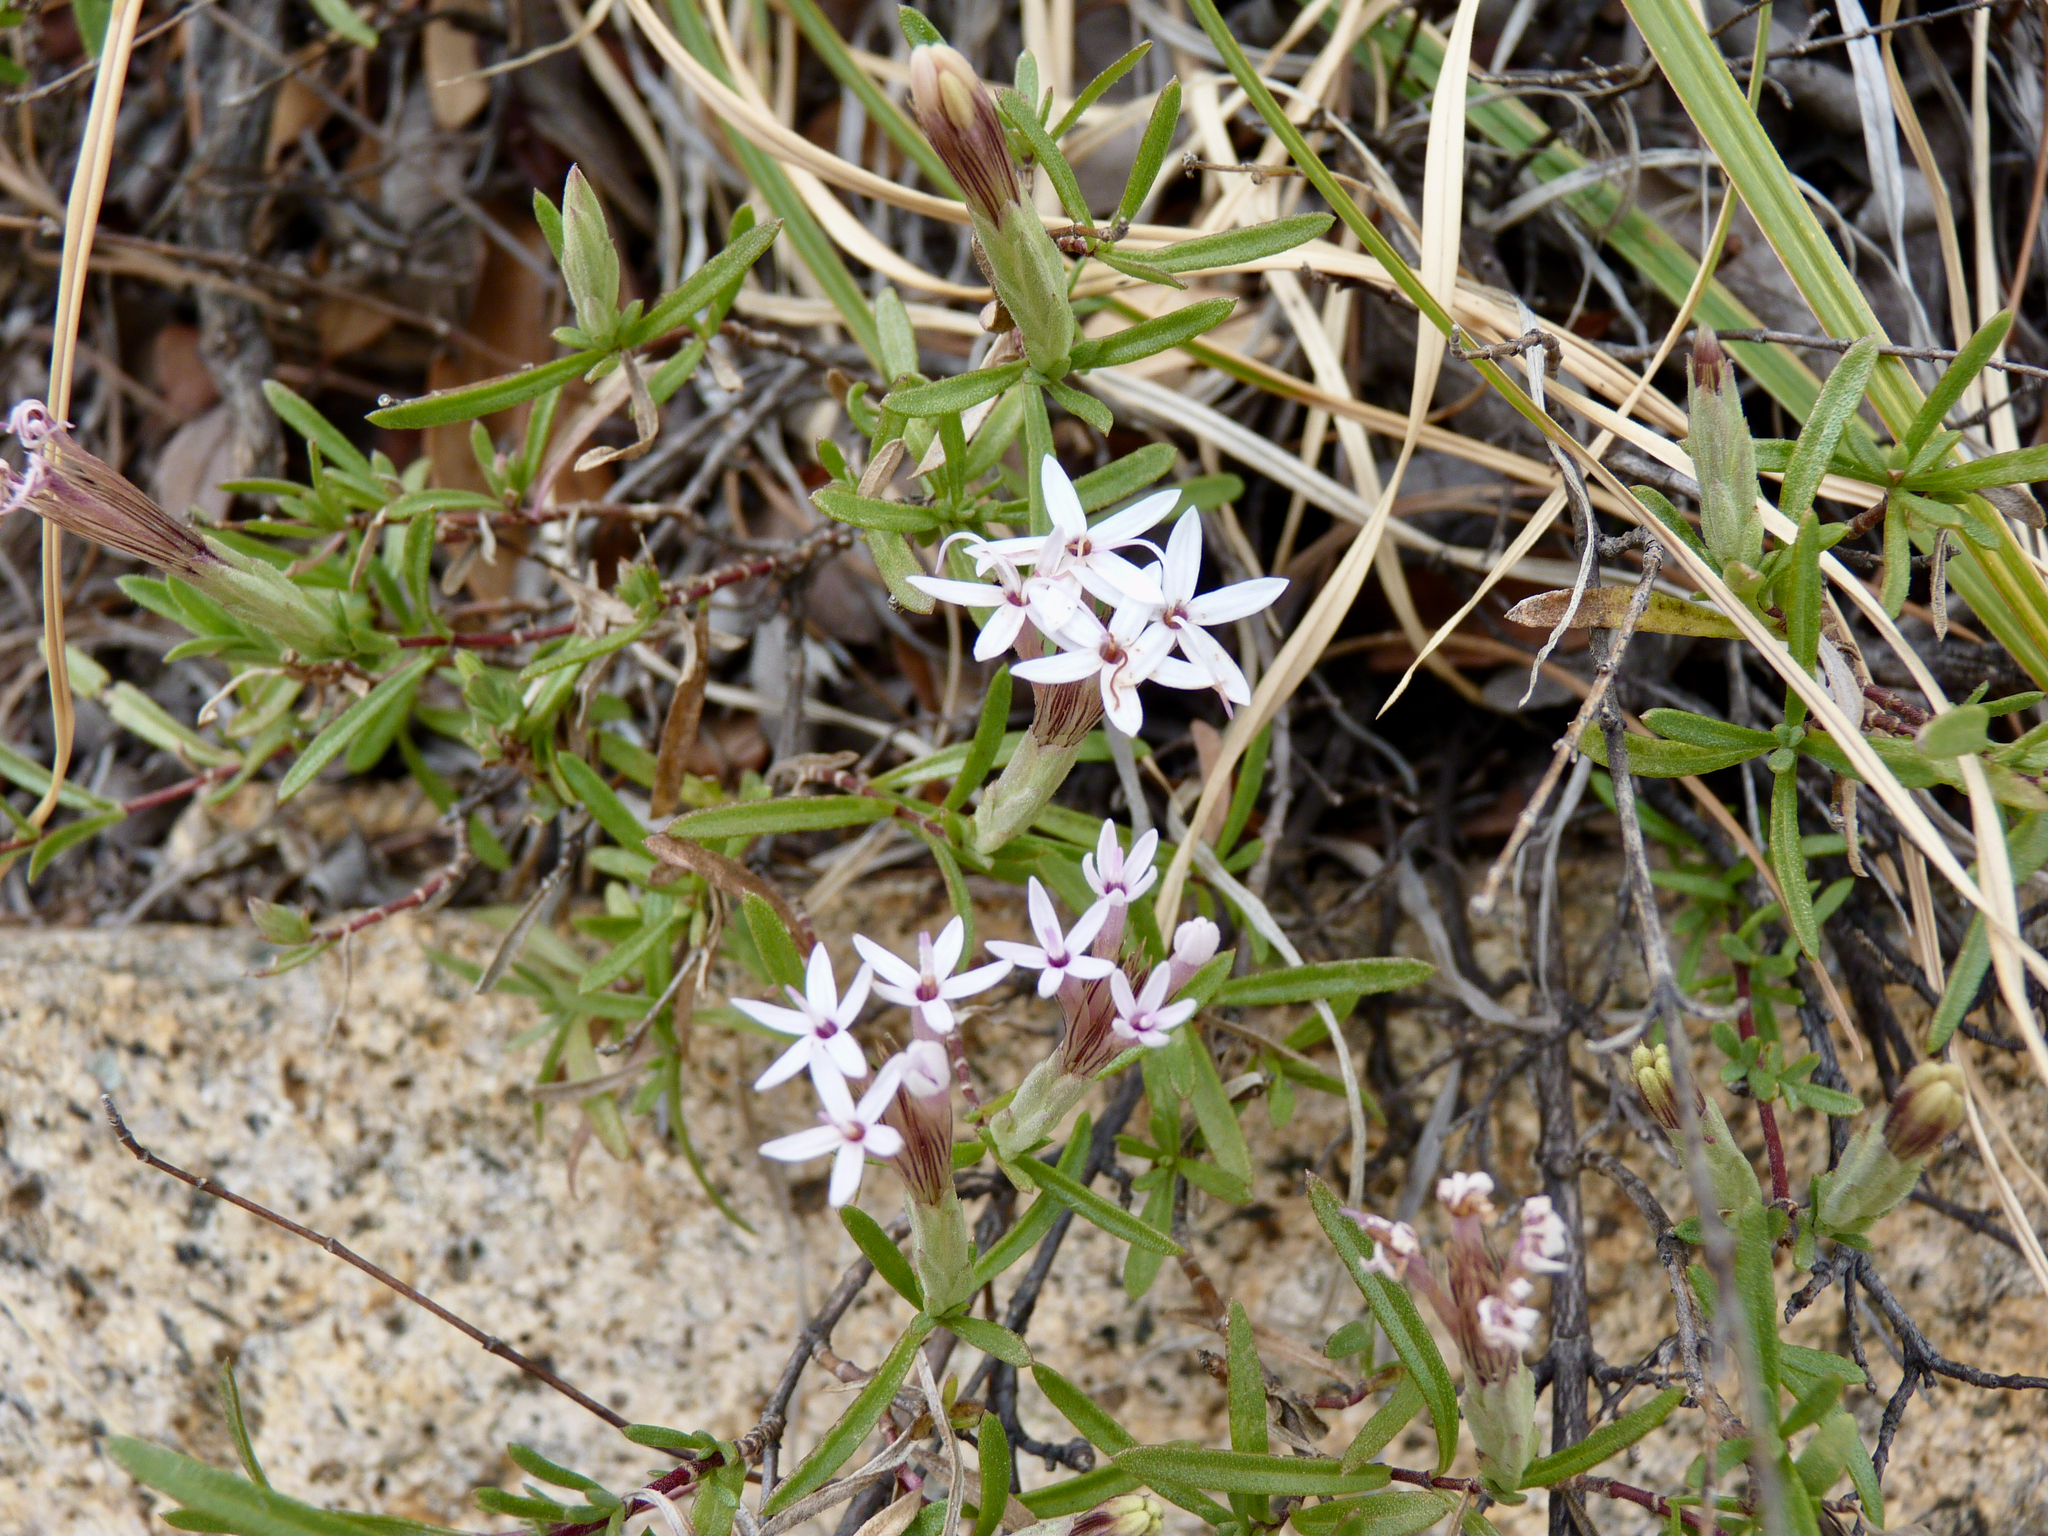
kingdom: Plantae
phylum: Tracheophyta
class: Magnoliopsida
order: Asterales
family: Asteraceae
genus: Carphochaete
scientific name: Carphochaete bigelovii
